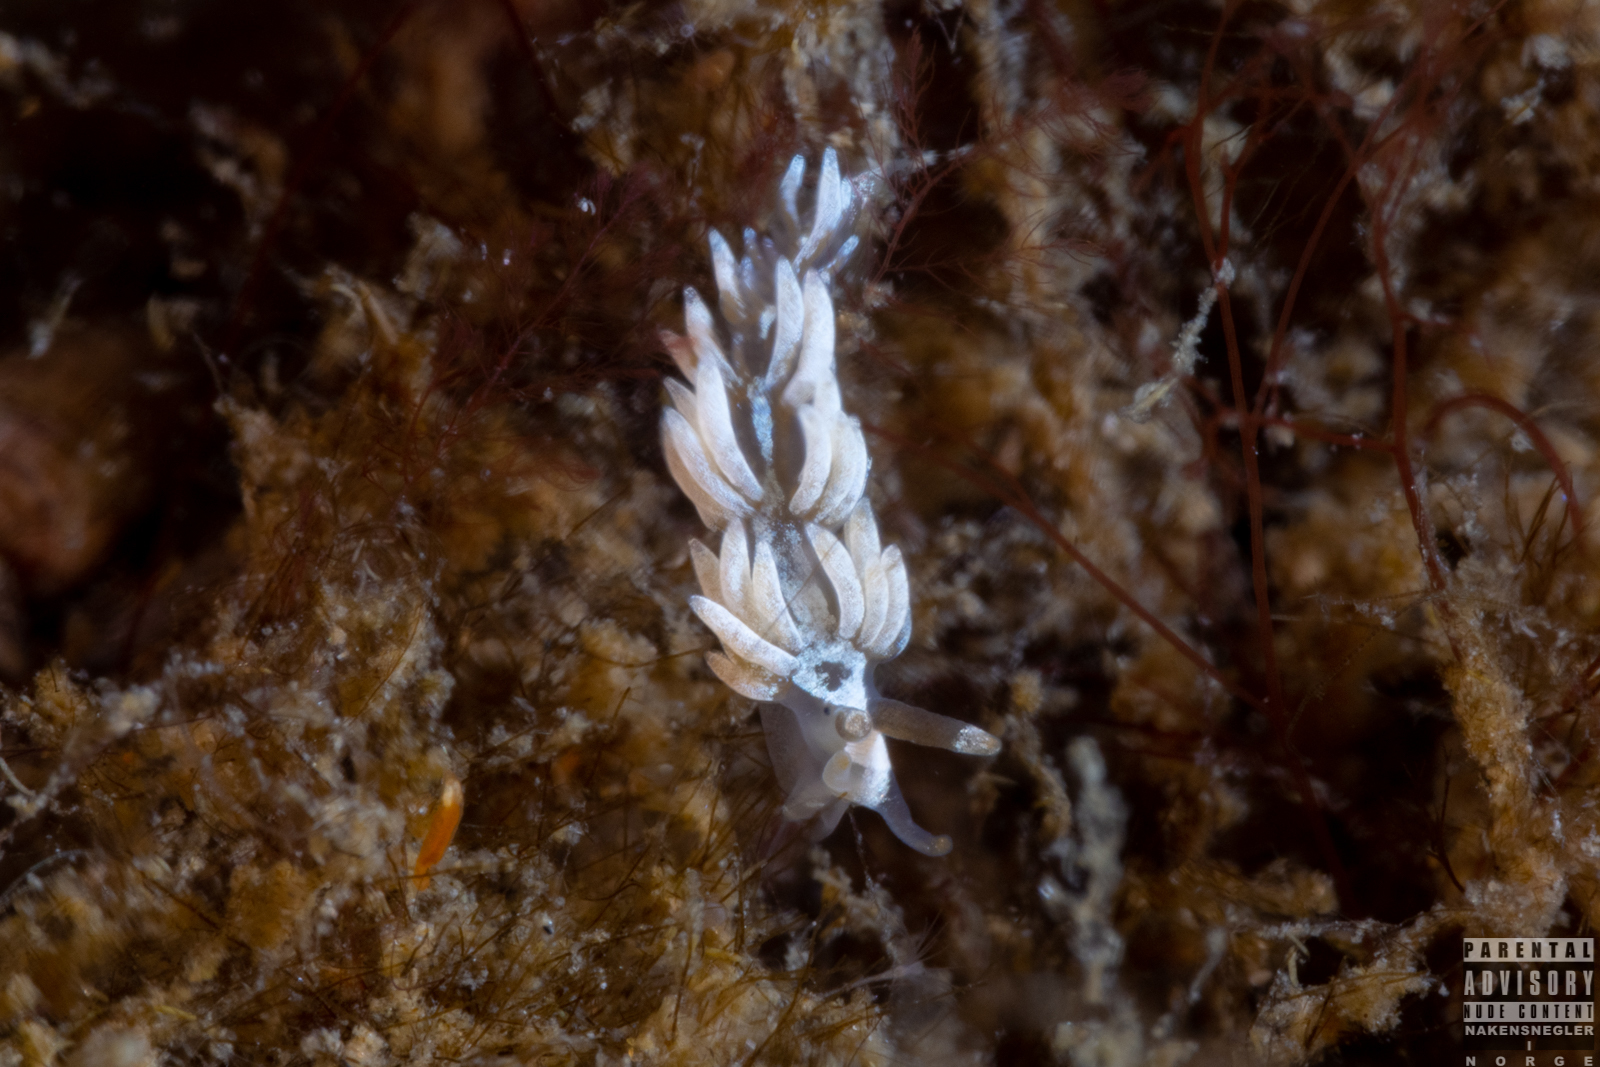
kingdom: Animalia
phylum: Mollusca
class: Gastropoda
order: Nudibranchia
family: Facelinidae
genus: Favorinus
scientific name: Favorinus branchialis
